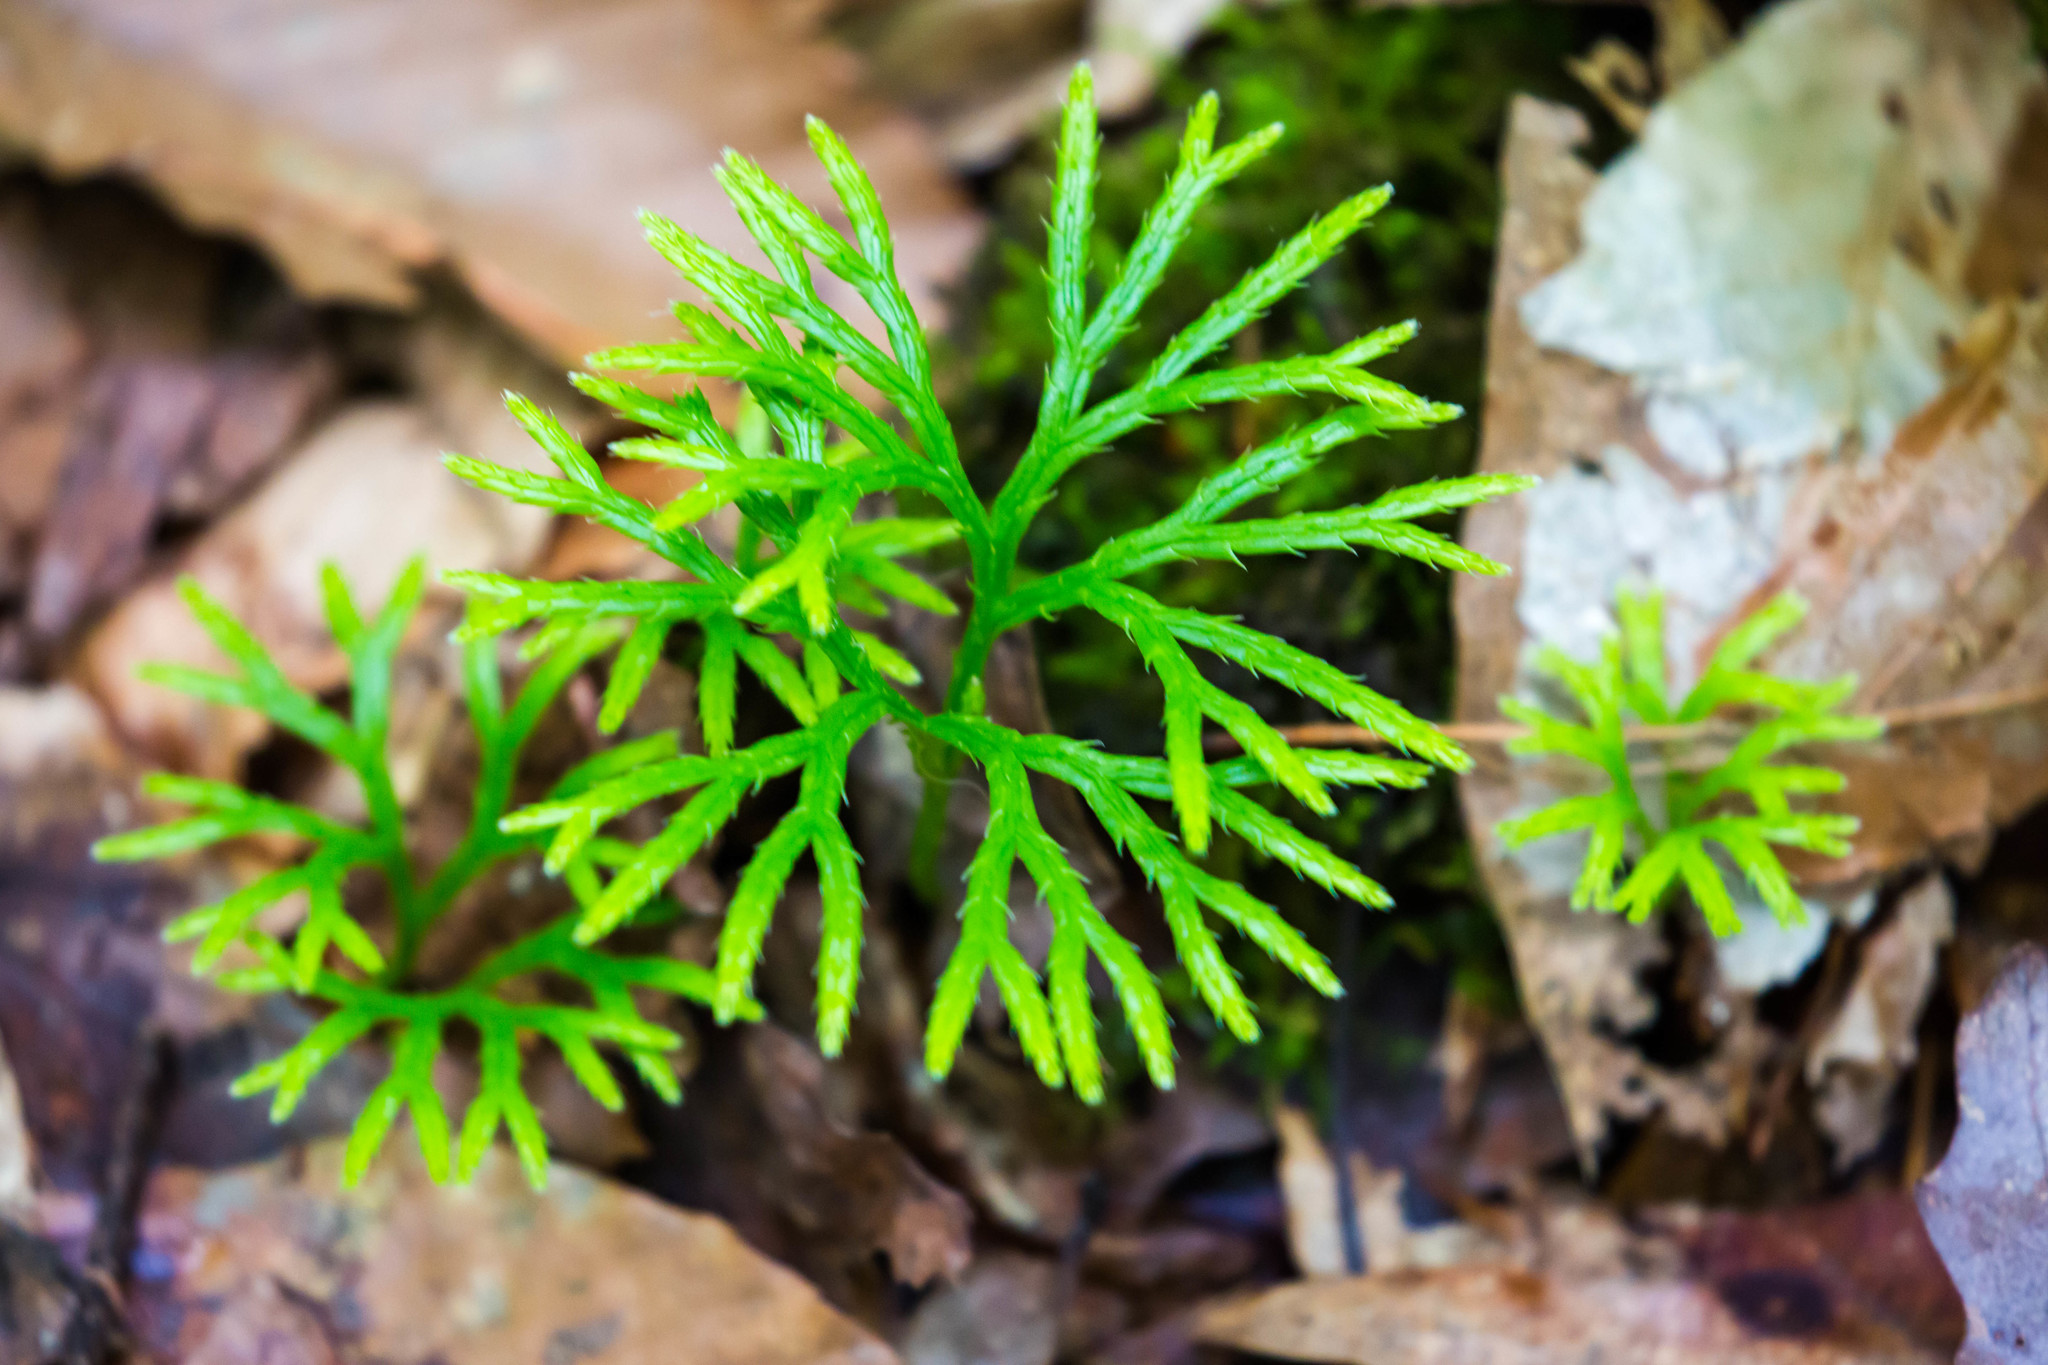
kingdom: Plantae
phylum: Tracheophyta
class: Lycopodiopsida
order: Lycopodiales
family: Lycopodiaceae
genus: Diphasiastrum
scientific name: Diphasiastrum digitatum
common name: Southern running-pine
